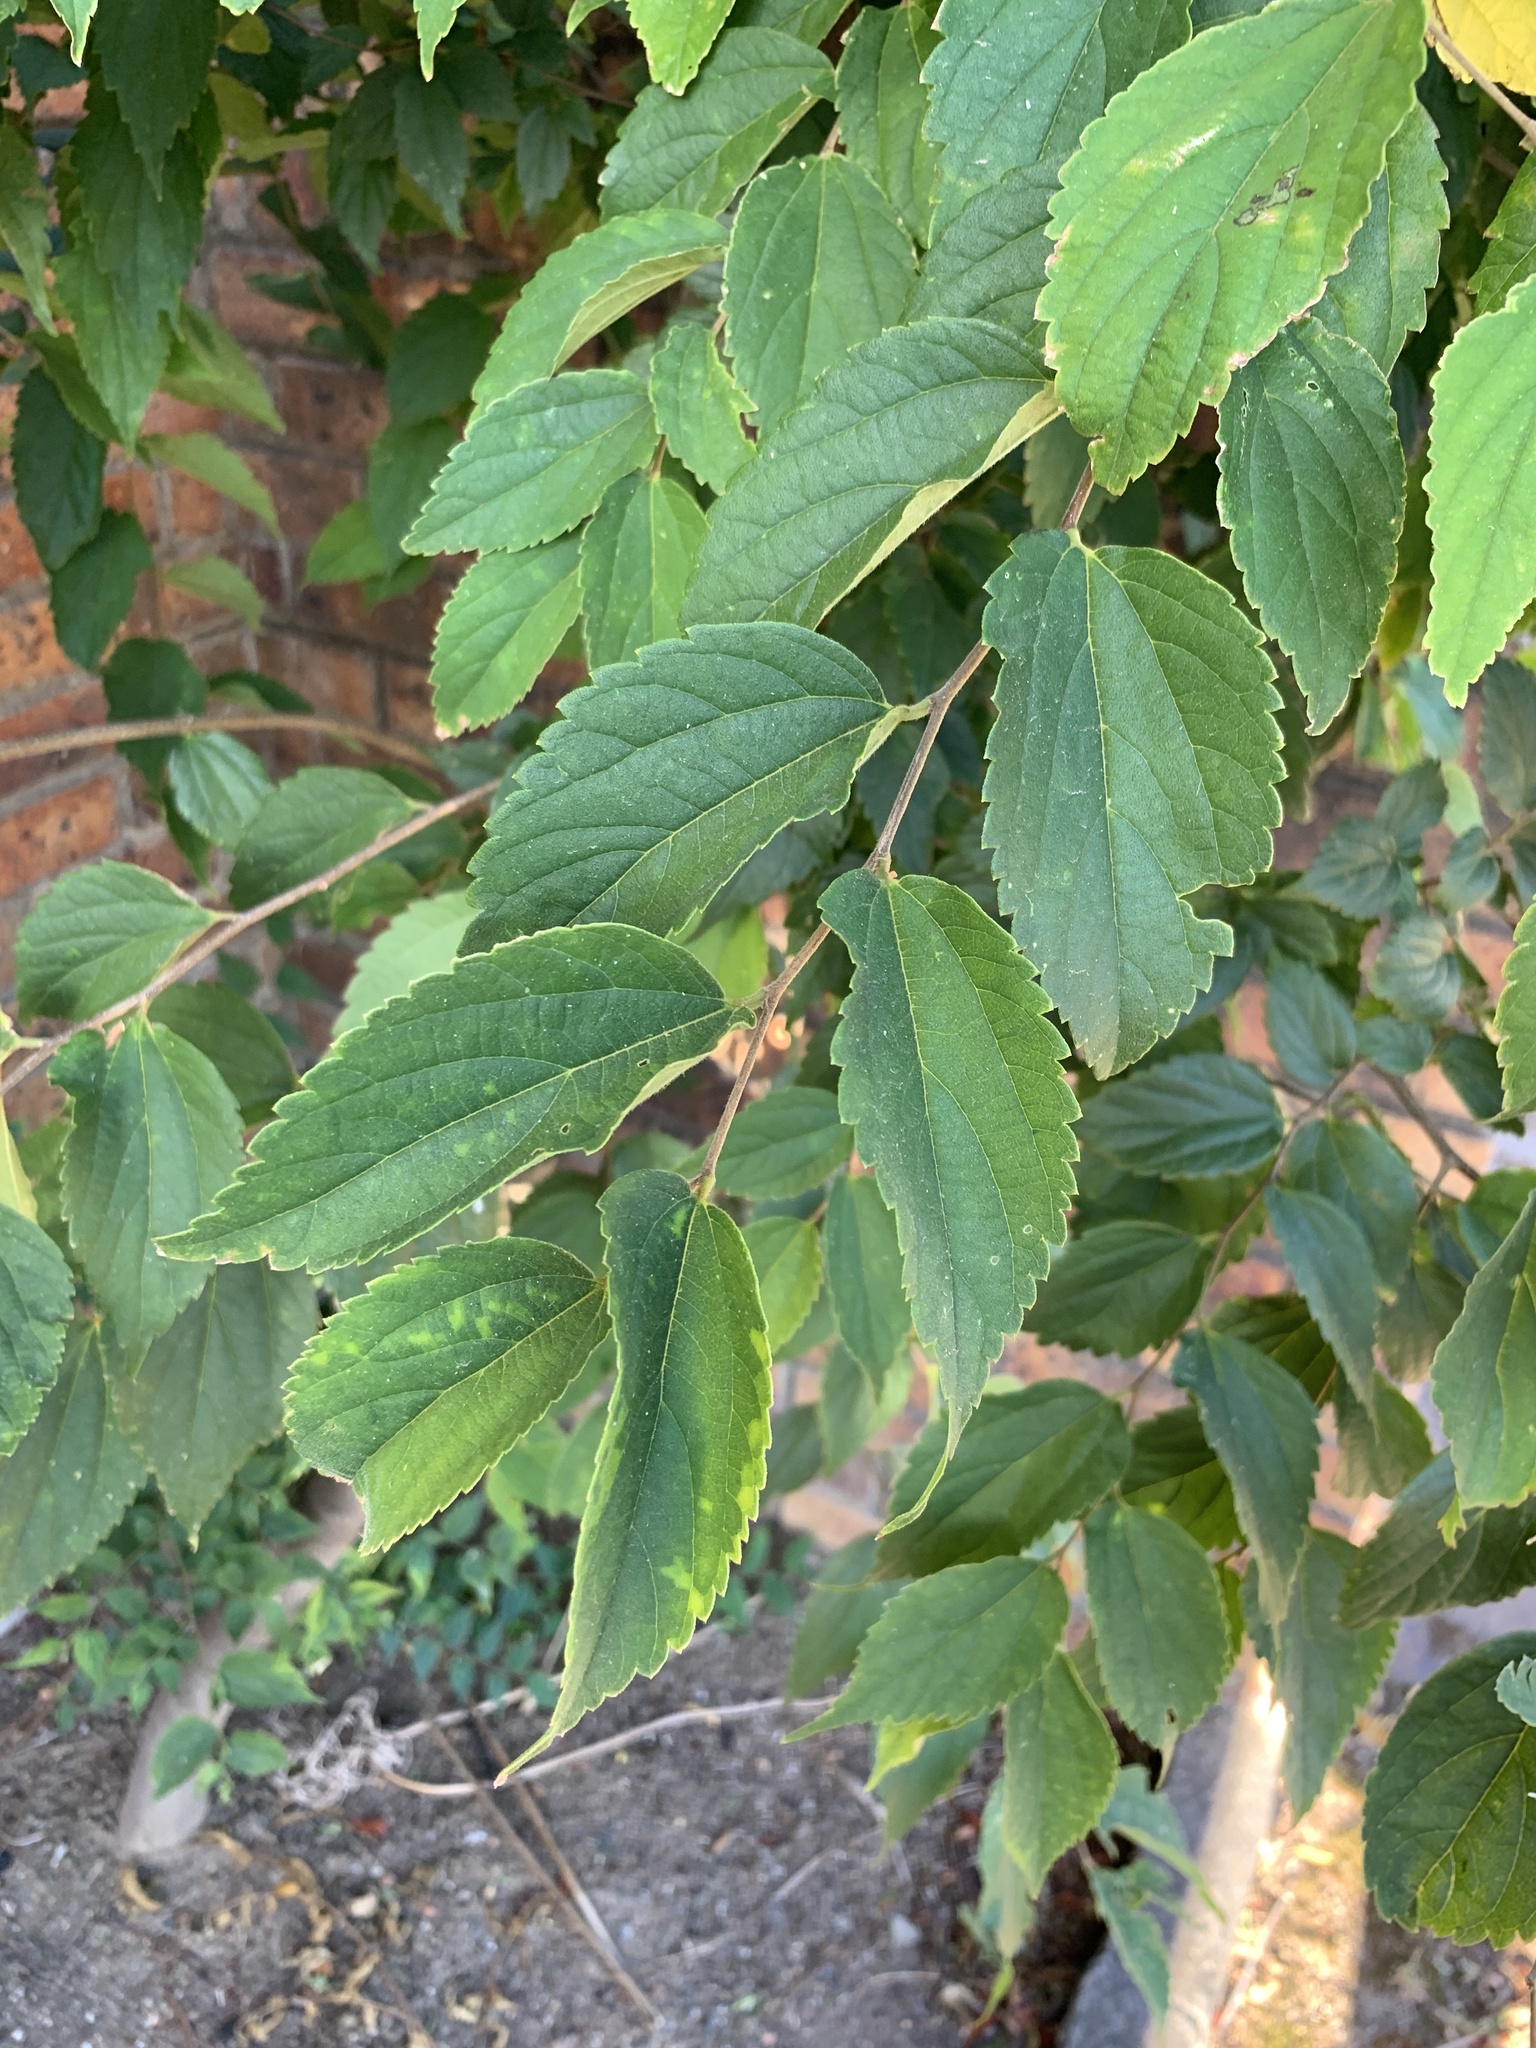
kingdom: Plantae
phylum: Tracheophyta
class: Magnoliopsida
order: Rosales
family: Cannabaceae
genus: Celtis
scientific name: Celtis africana
